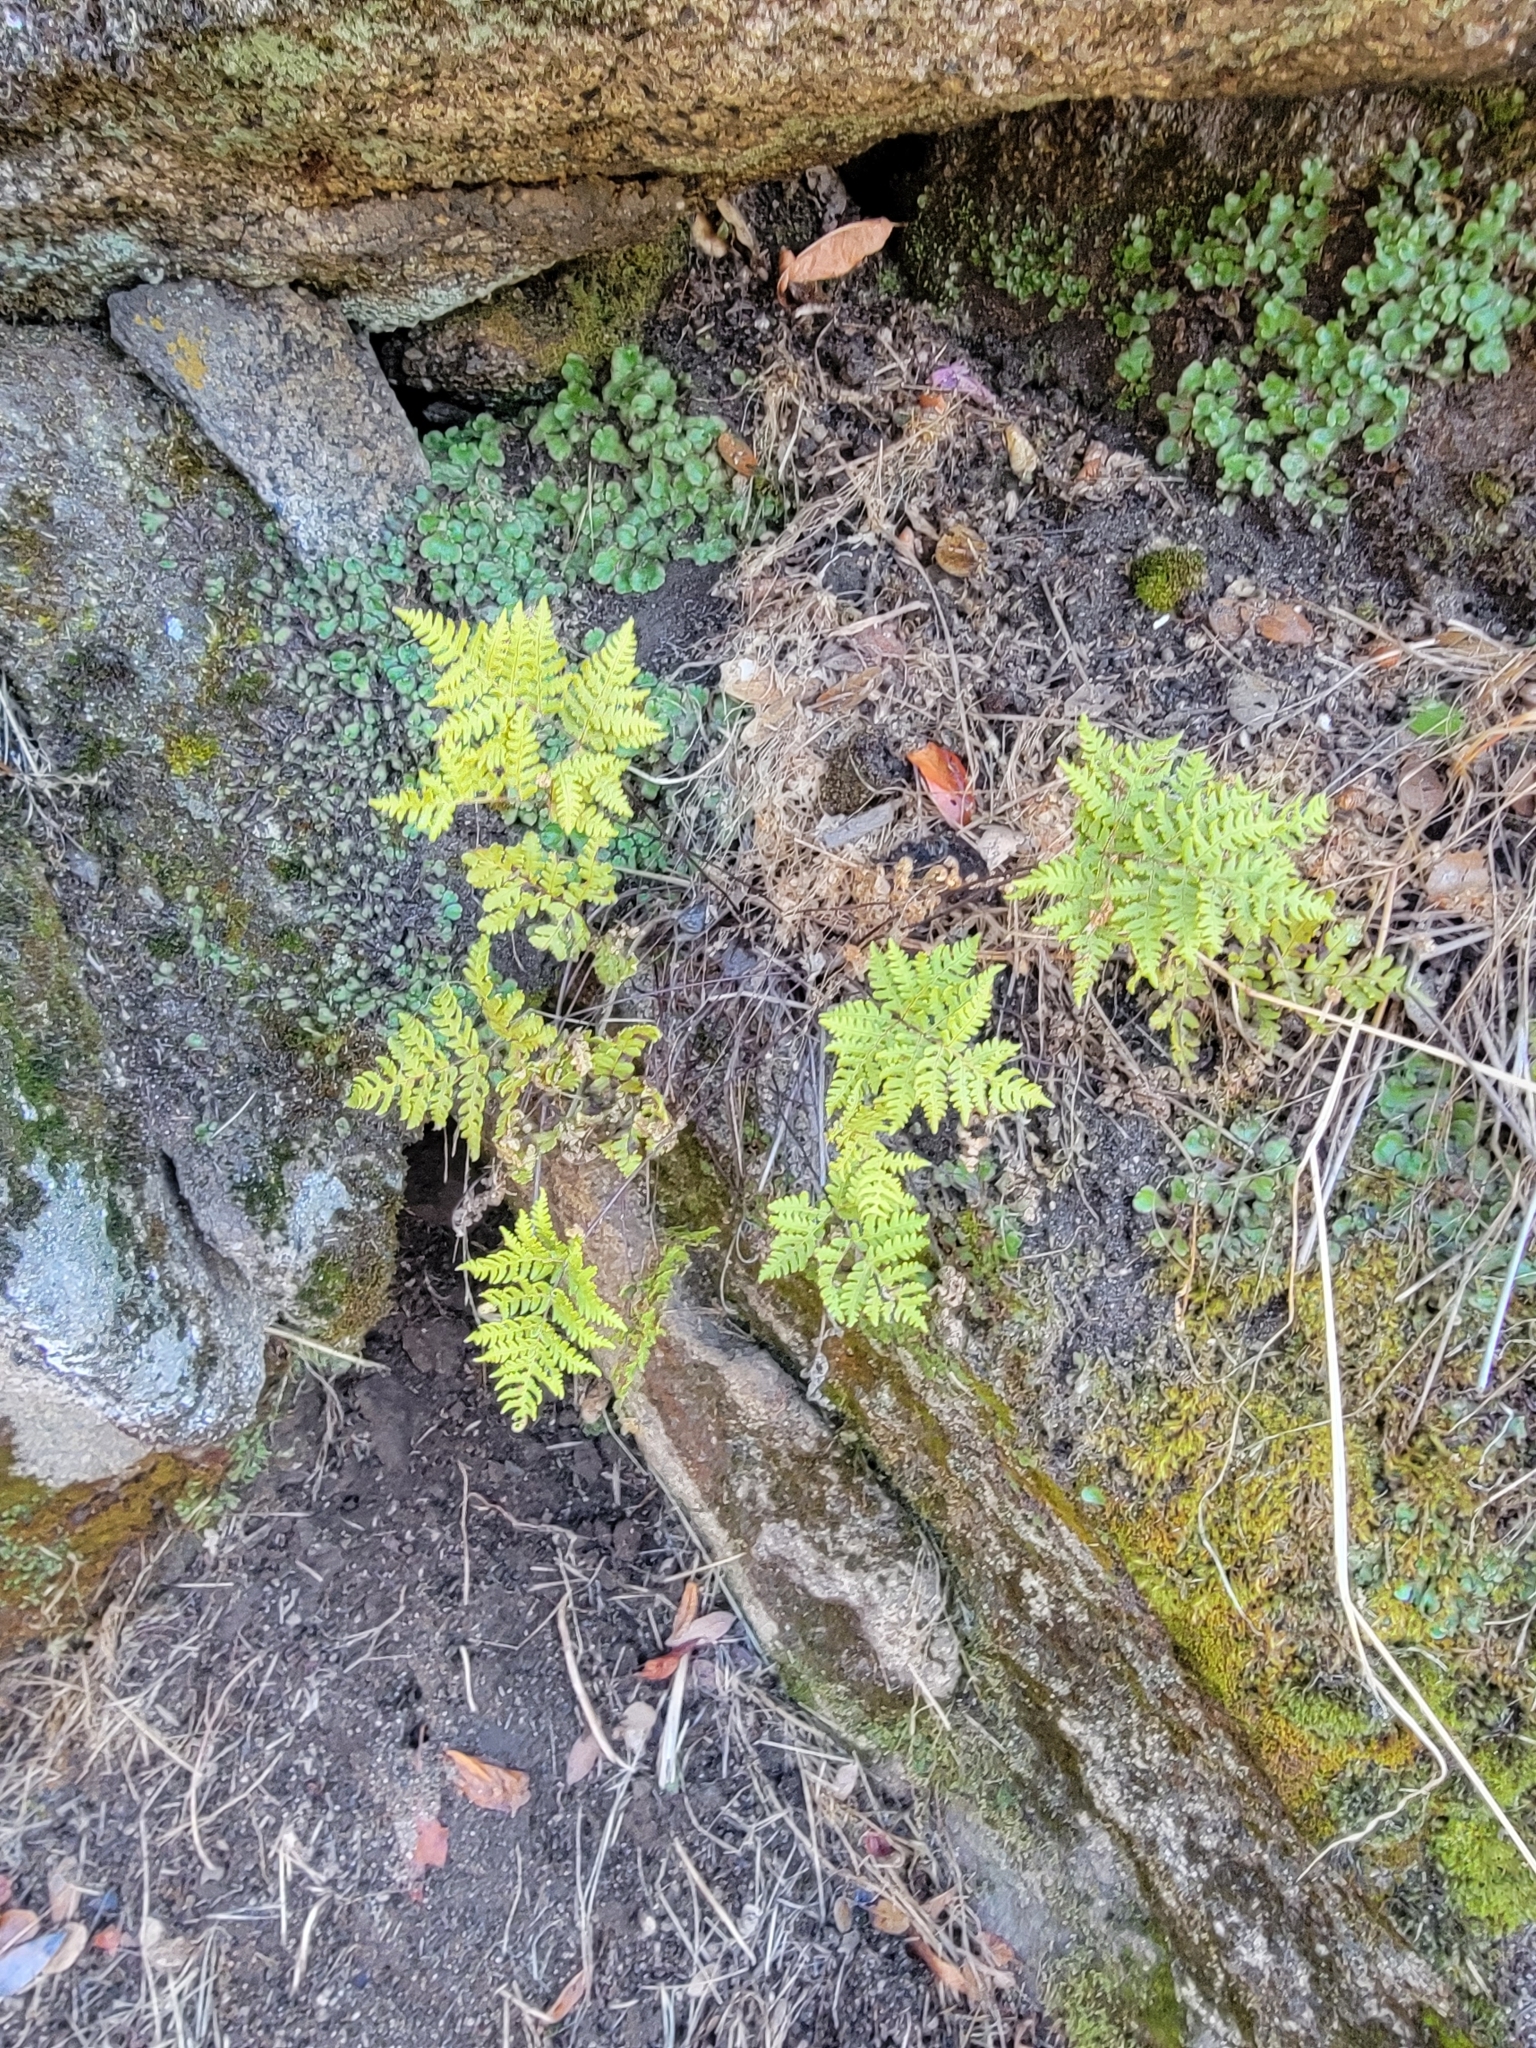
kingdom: Plantae
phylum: Tracheophyta
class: Polypodiopsida
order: Polypodiales
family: Pteridaceae
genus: Pentagramma
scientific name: Pentagramma triangularis
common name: Gold fern
